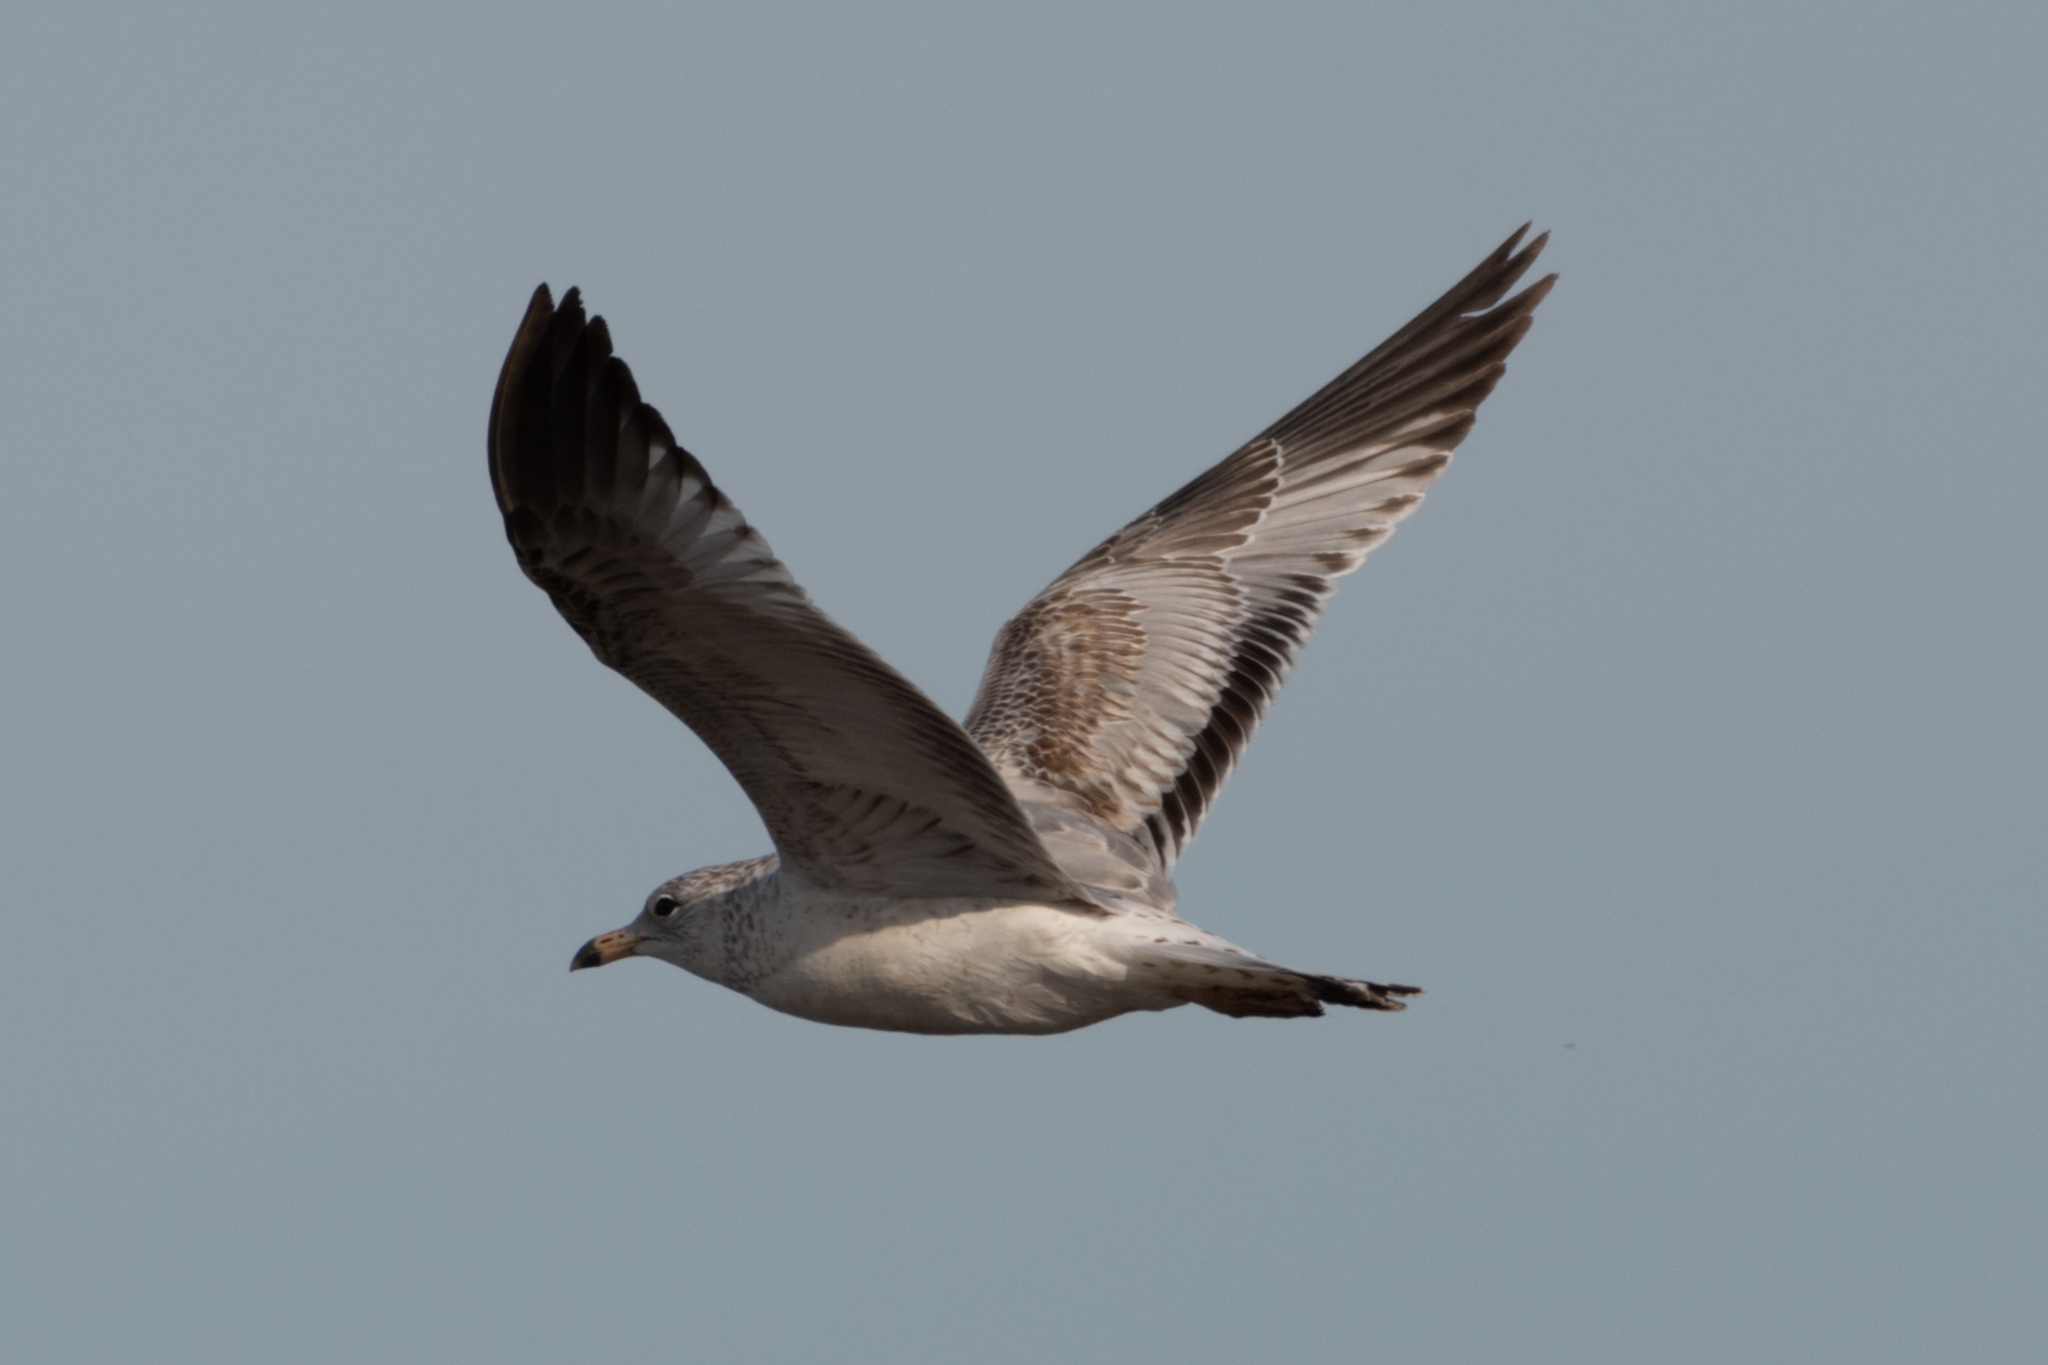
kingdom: Animalia
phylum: Chordata
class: Aves
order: Charadriiformes
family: Laridae
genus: Larus
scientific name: Larus delawarensis
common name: Ring-billed gull
